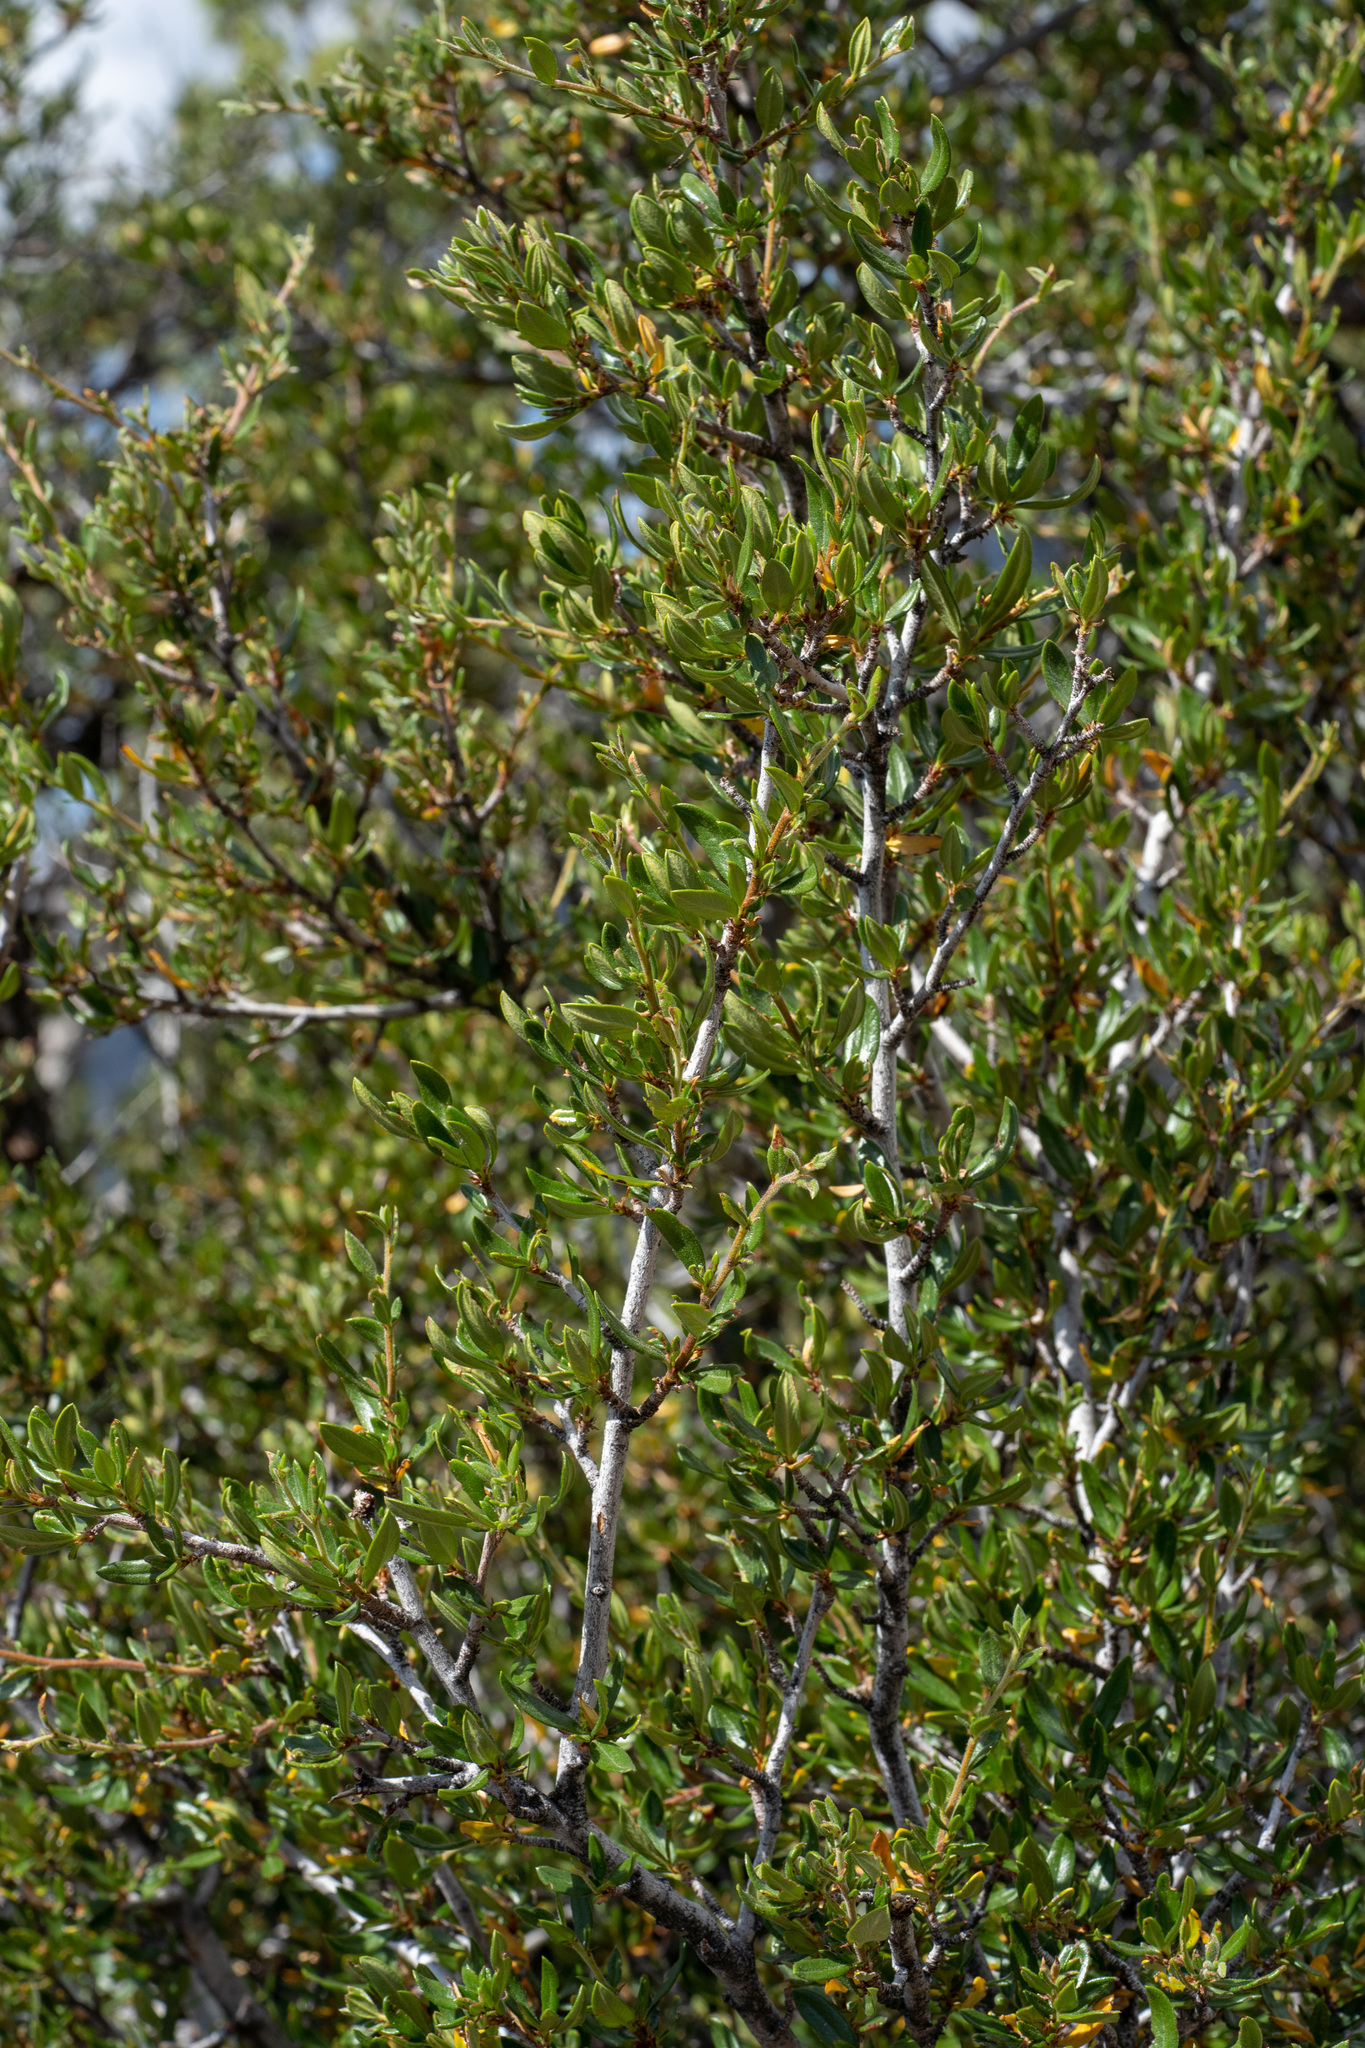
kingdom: Plantae
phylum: Tracheophyta
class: Magnoliopsida
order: Rosales
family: Rosaceae
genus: Cercocarpus
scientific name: Cercocarpus ledifolius
